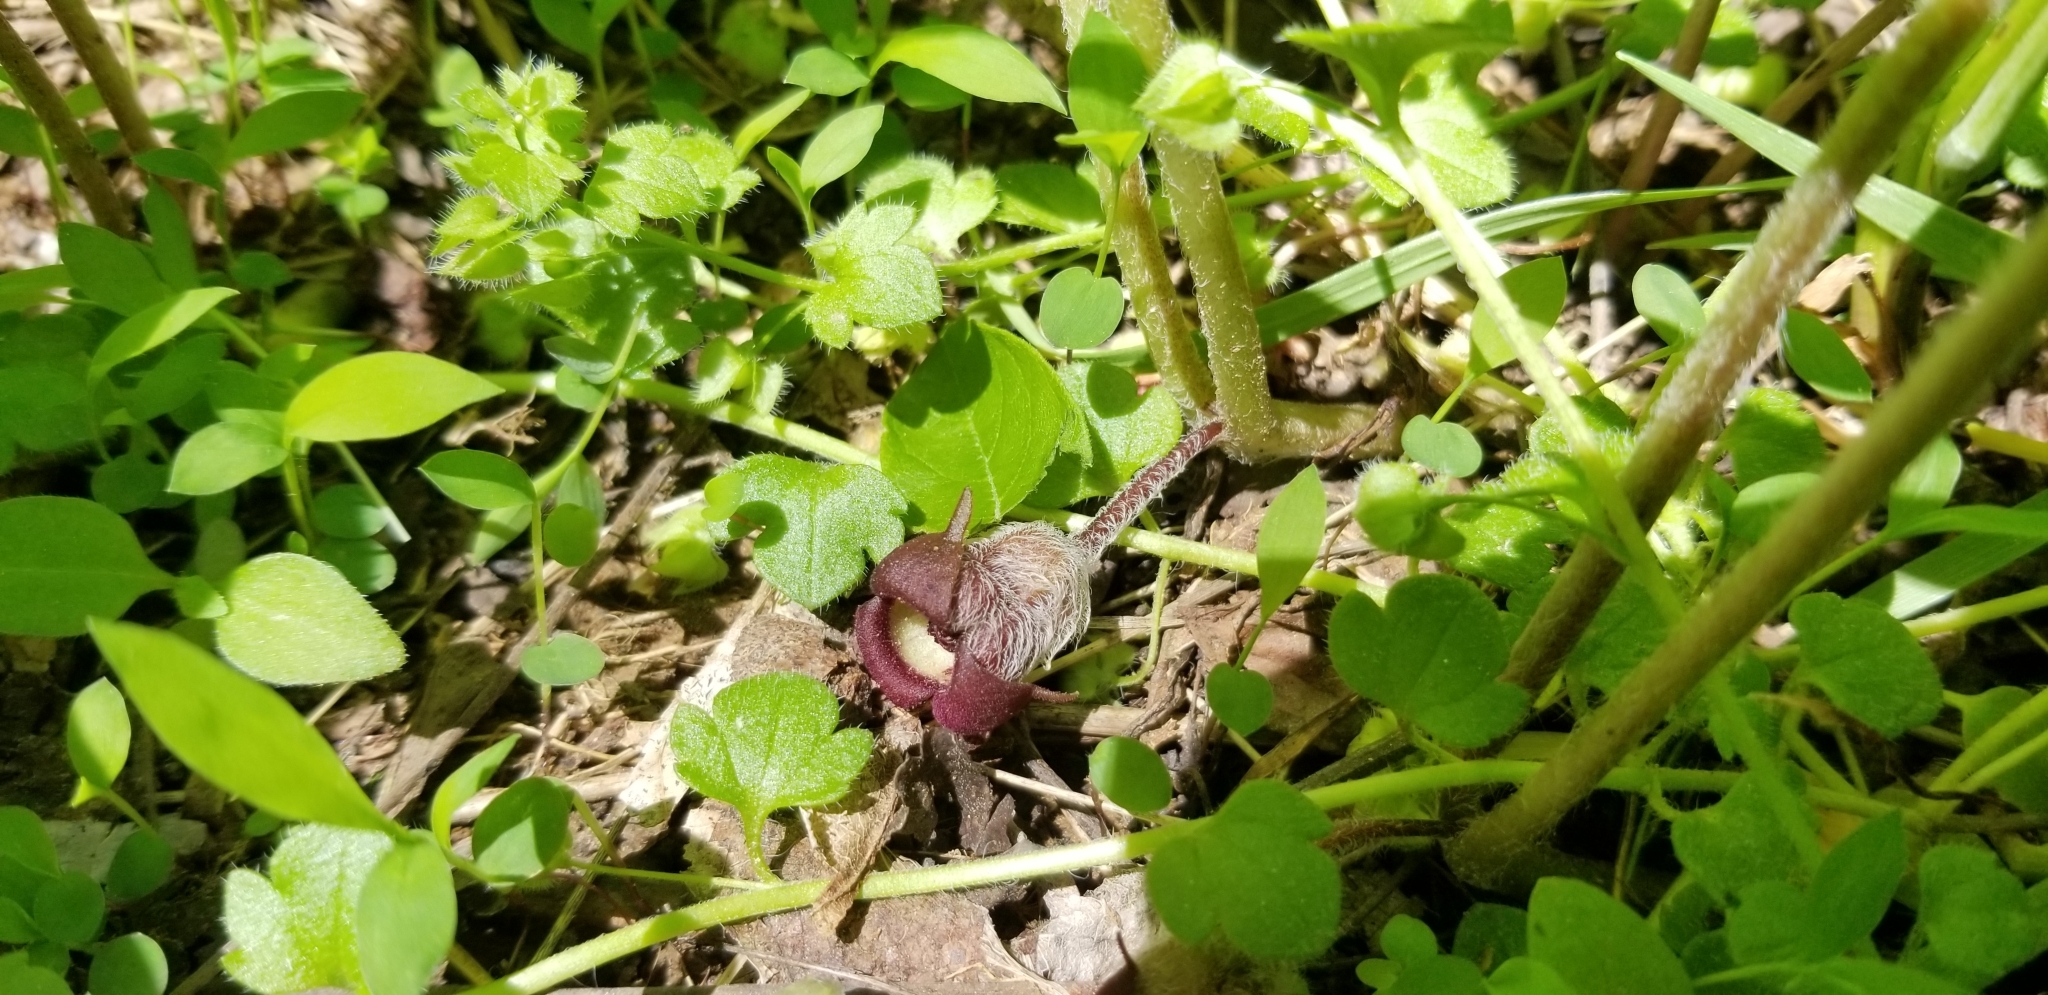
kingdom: Plantae
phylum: Tracheophyta
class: Magnoliopsida
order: Piperales
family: Aristolochiaceae
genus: Asarum
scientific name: Asarum canadense
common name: Wild ginger
